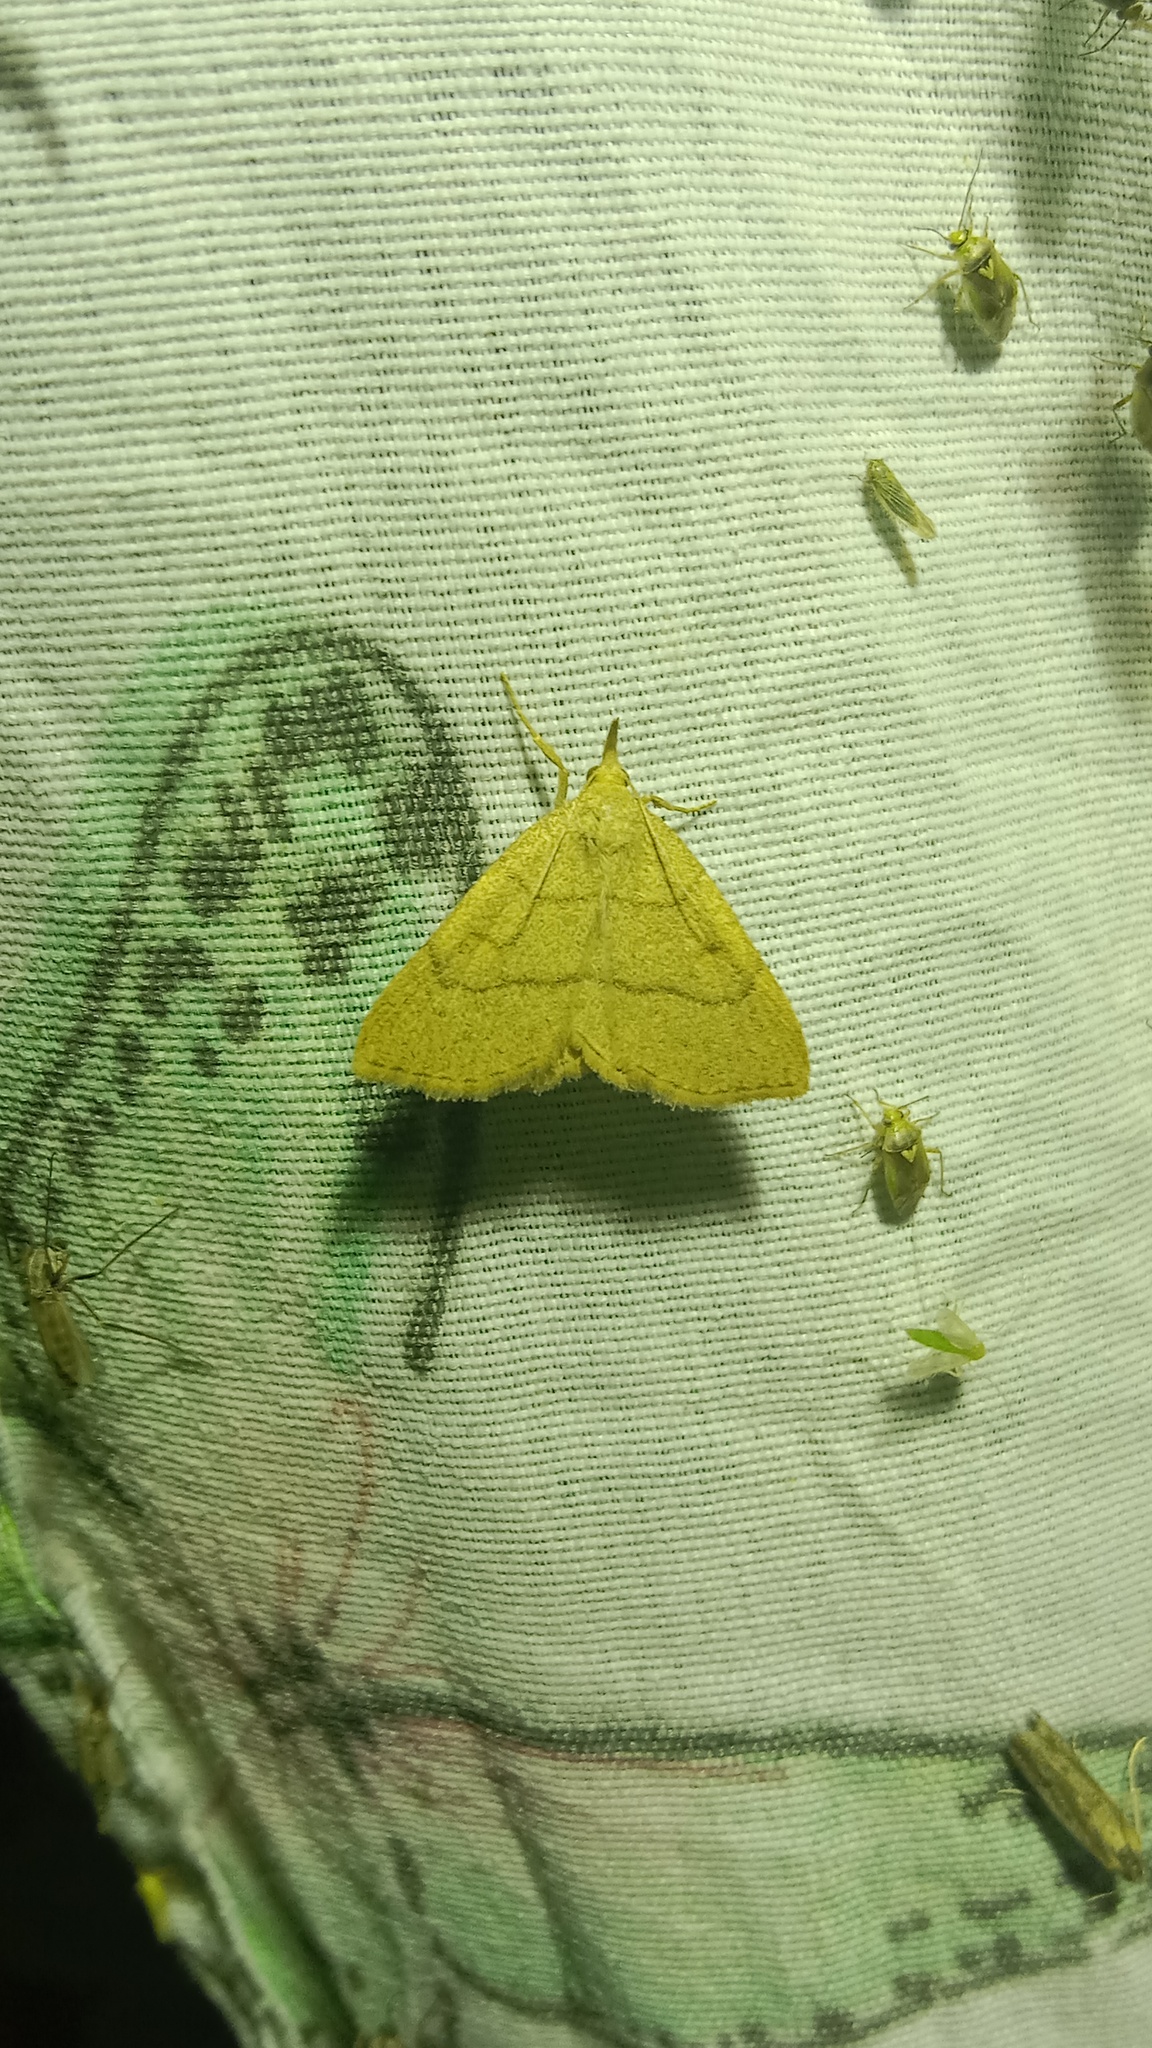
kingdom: Animalia
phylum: Arthropoda
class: Insecta
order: Lepidoptera
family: Erebidae
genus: Paracolax
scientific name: Paracolax tristalis
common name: Clay fan-foot
